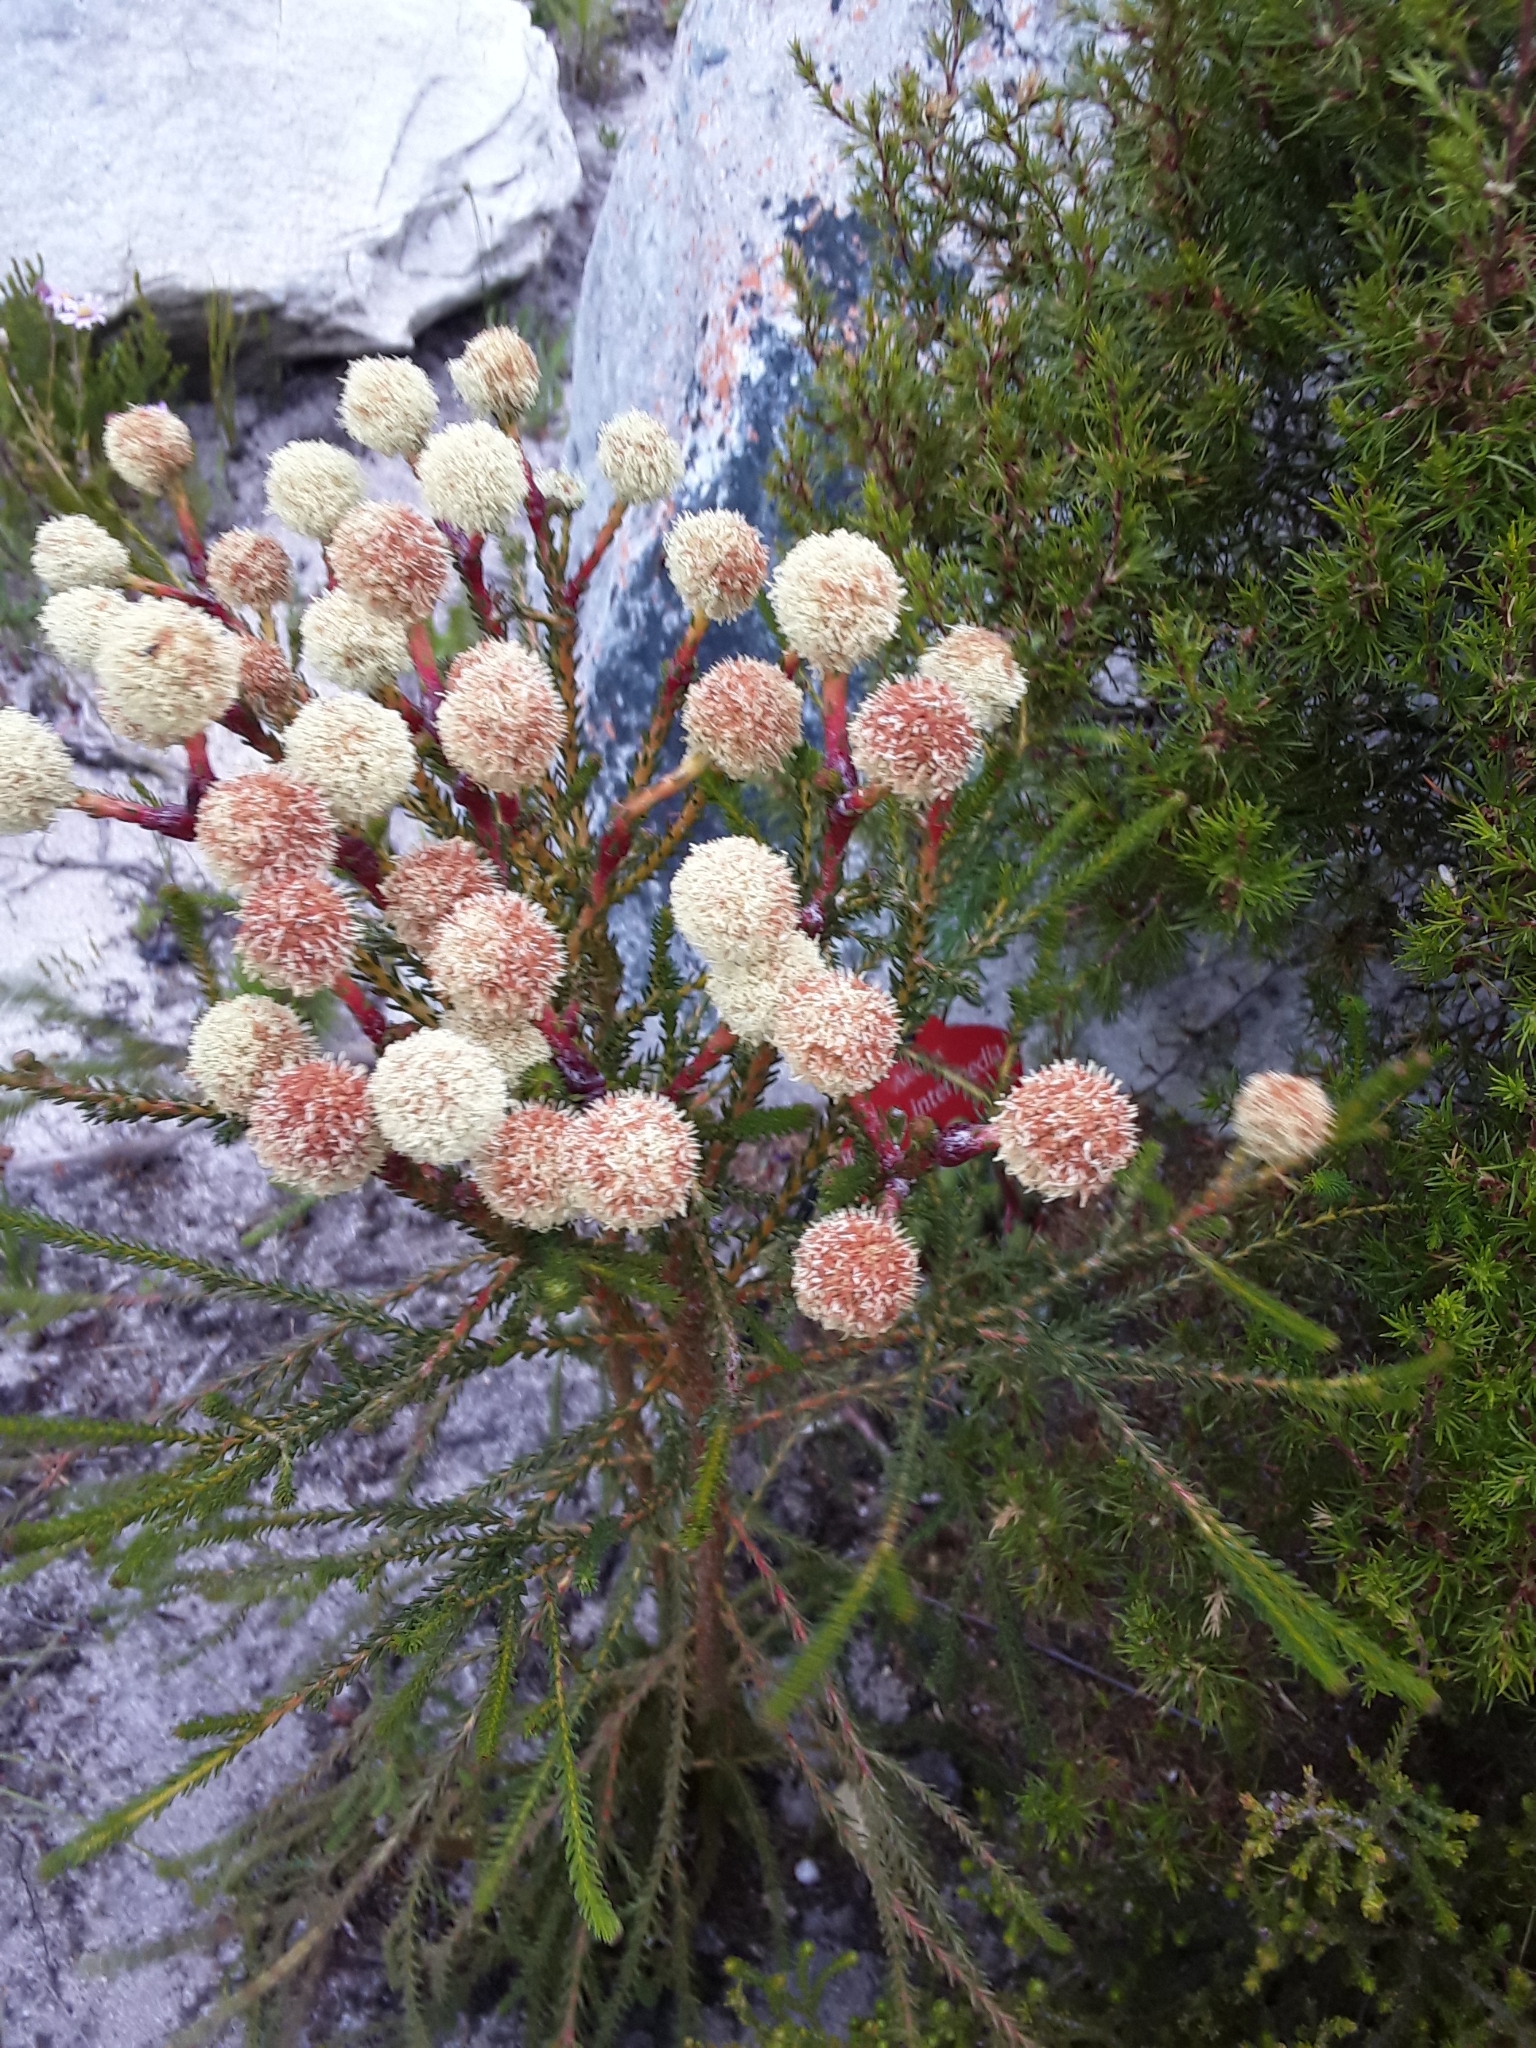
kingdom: Plantae
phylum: Tracheophyta
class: Magnoliopsida
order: Bruniales
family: Bruniaceae
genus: Berzelia
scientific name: Berzelia intermedia
